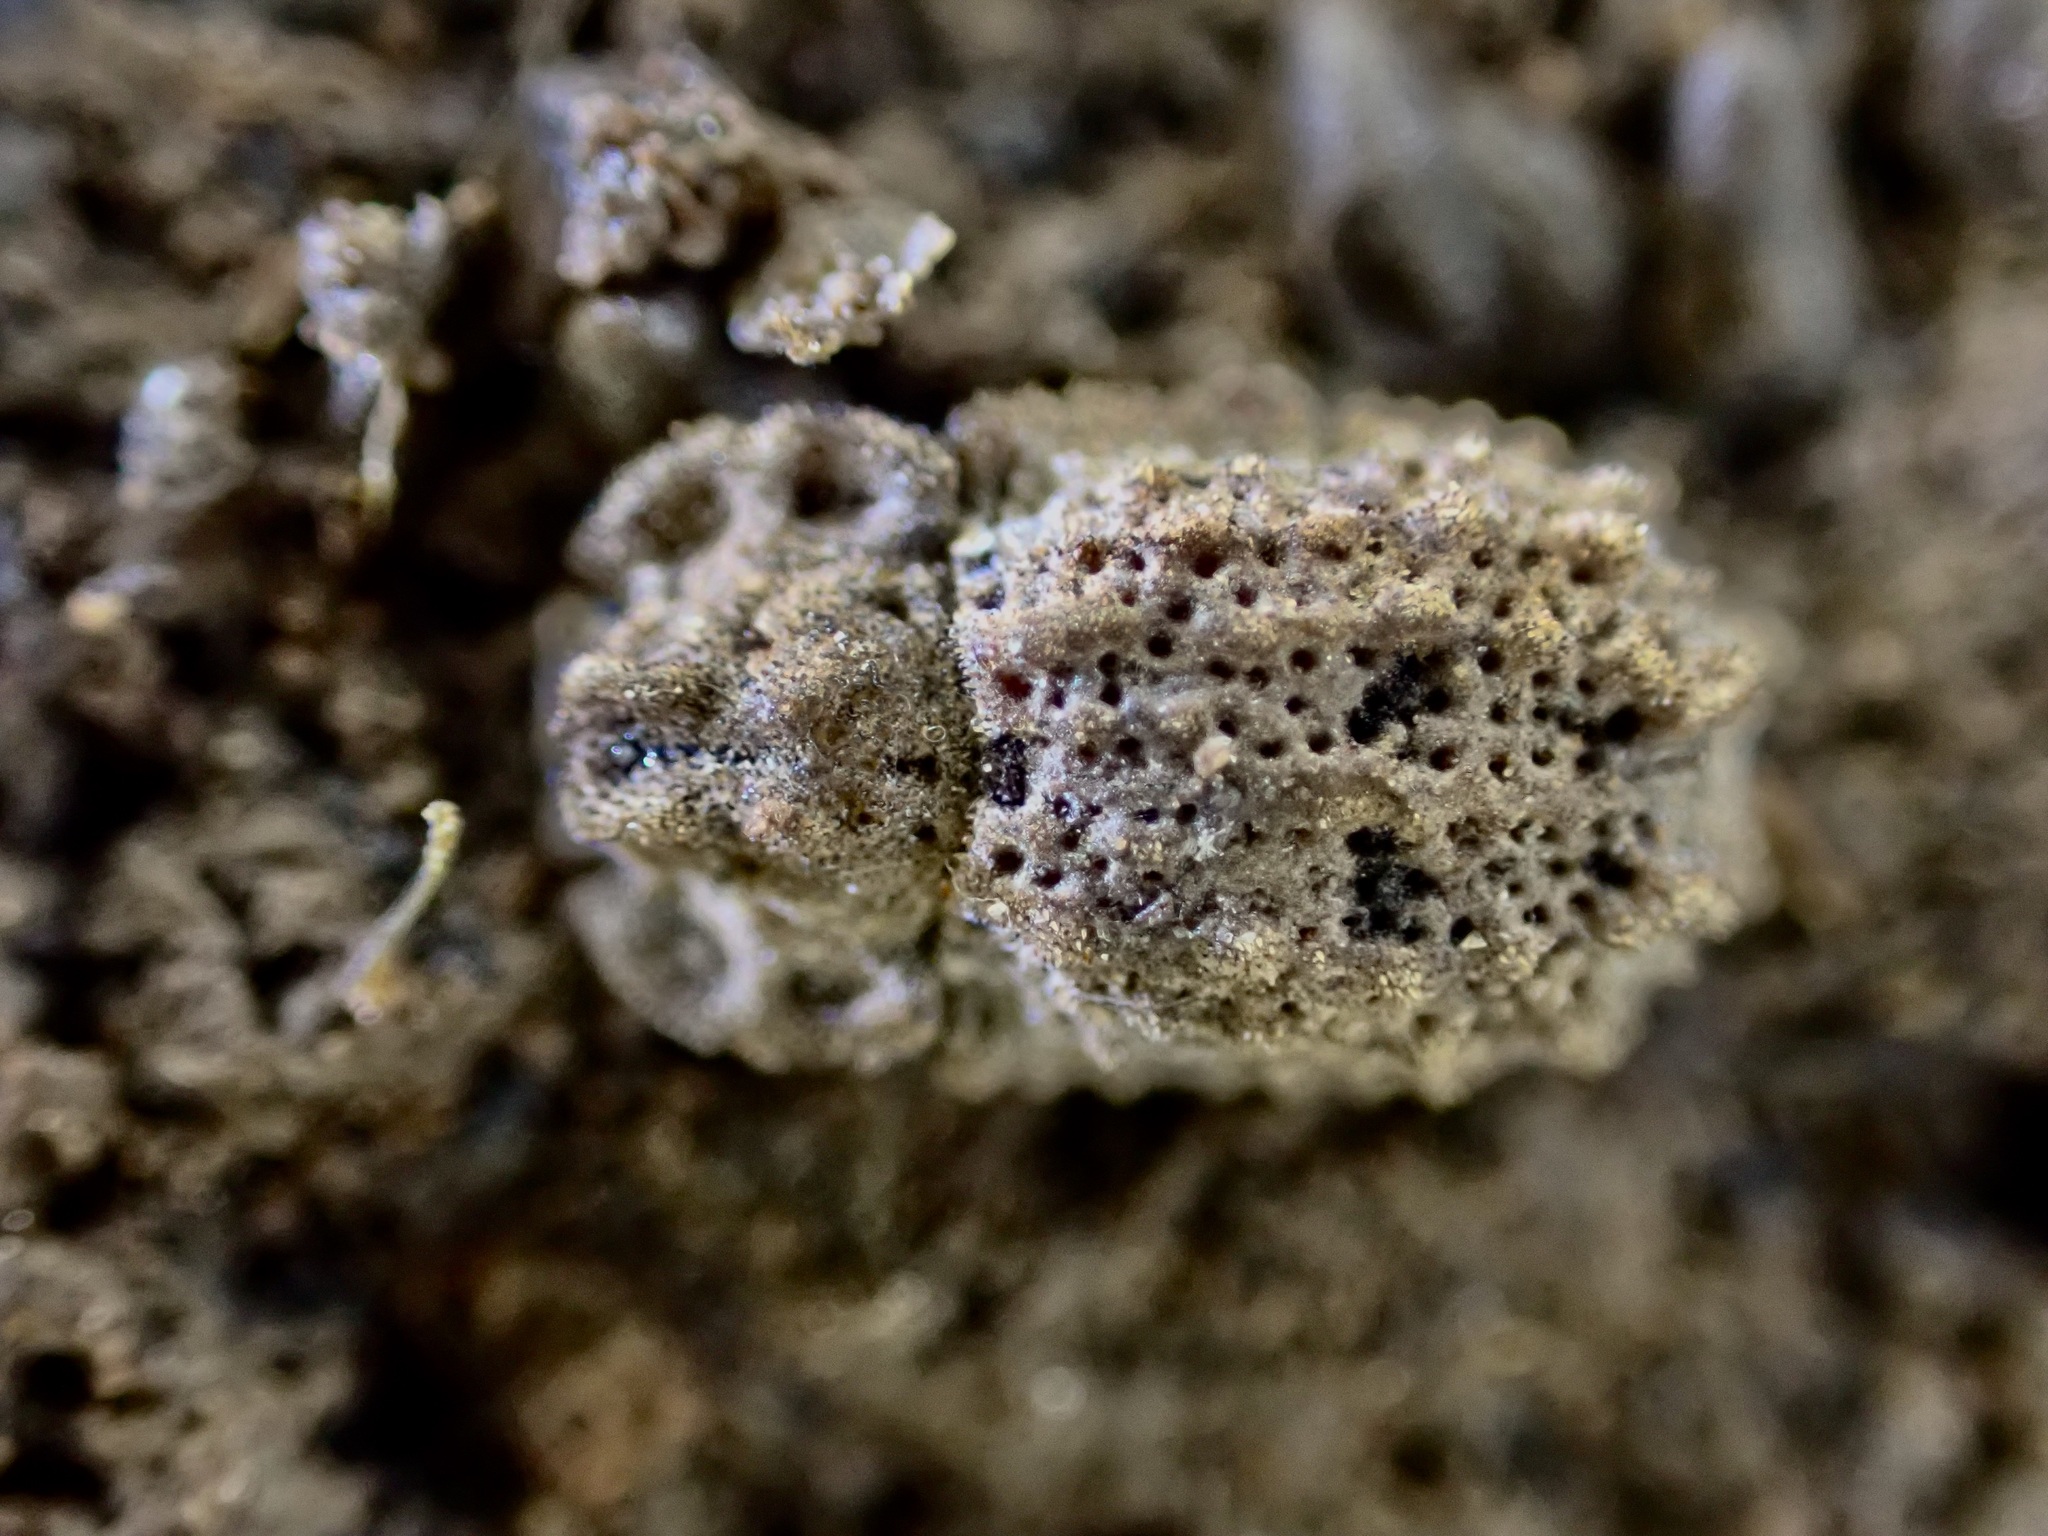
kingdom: Animalia
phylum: Arthropoda
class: Insecta
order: Coleoptera
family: Zopheridae
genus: Pristoderus
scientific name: Pristoderus
